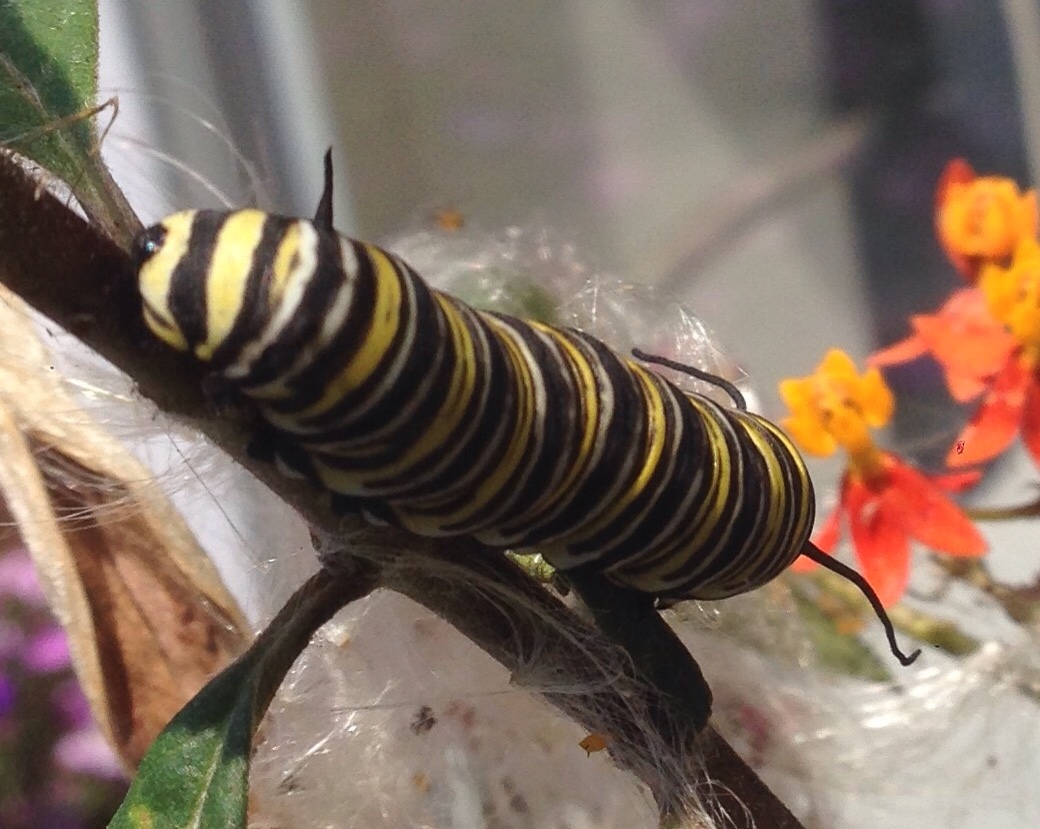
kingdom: Animalia
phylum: Arthropoda
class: Insecta
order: Lepidoptera
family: Nymphalidae
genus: Danaus
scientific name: Danaus plexippus
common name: Monarch
